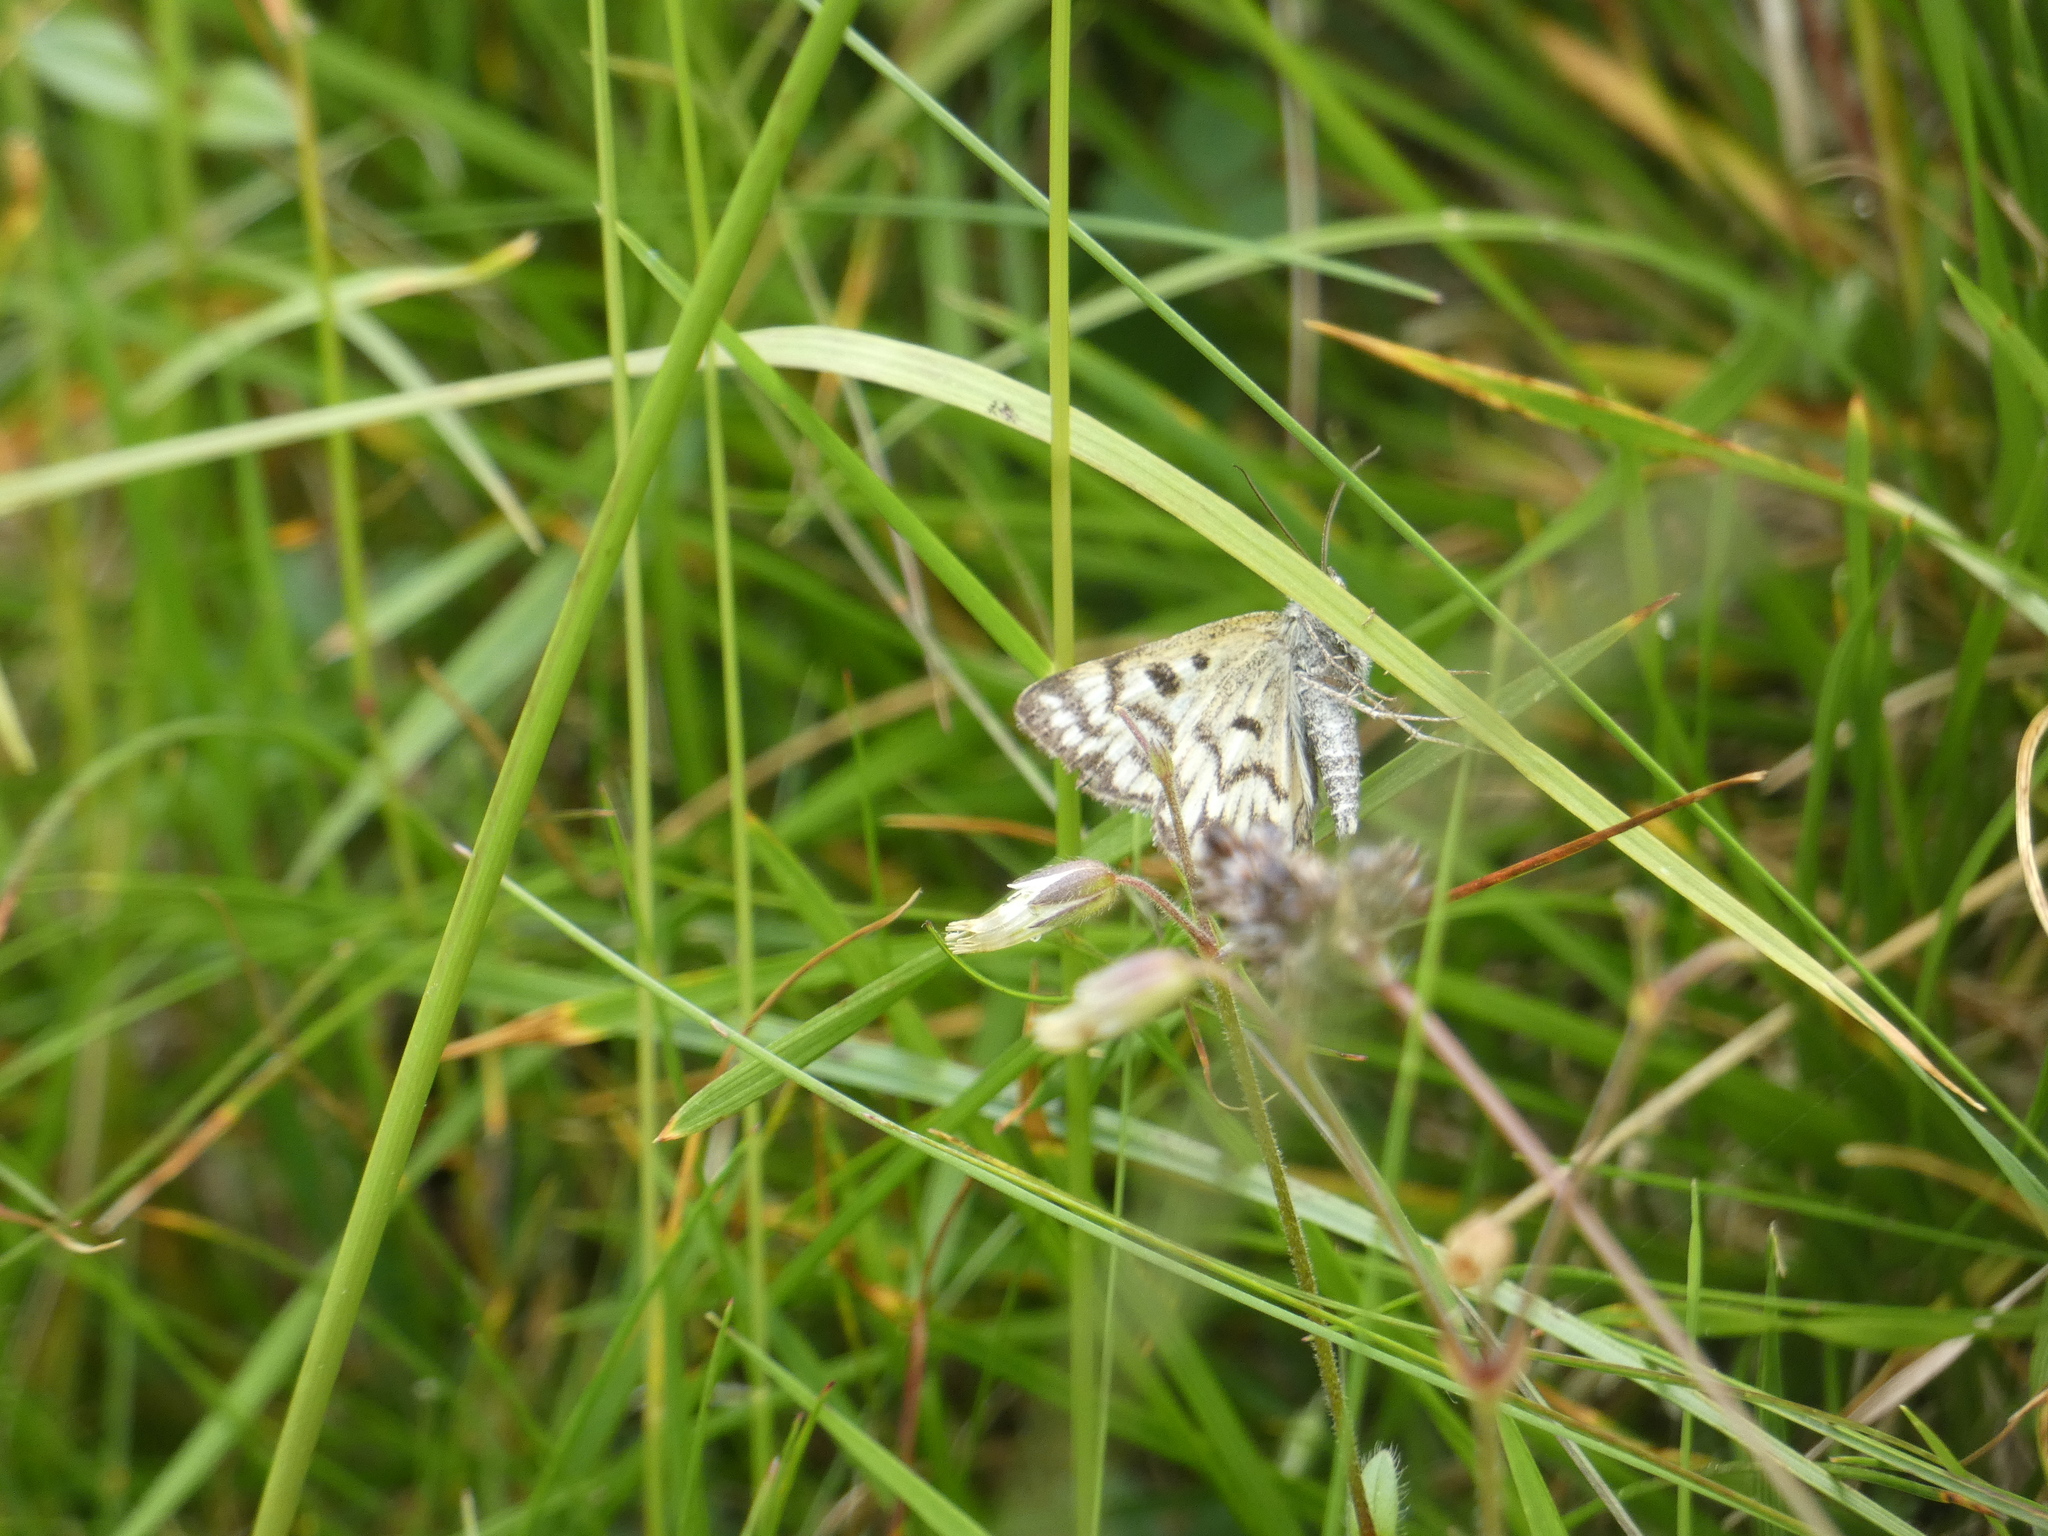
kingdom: Animalia
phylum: Arthropoda
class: Insecta
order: Lepidoptera
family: Erebidae
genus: Callistege
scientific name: Callistege mi
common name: Mother shipton
